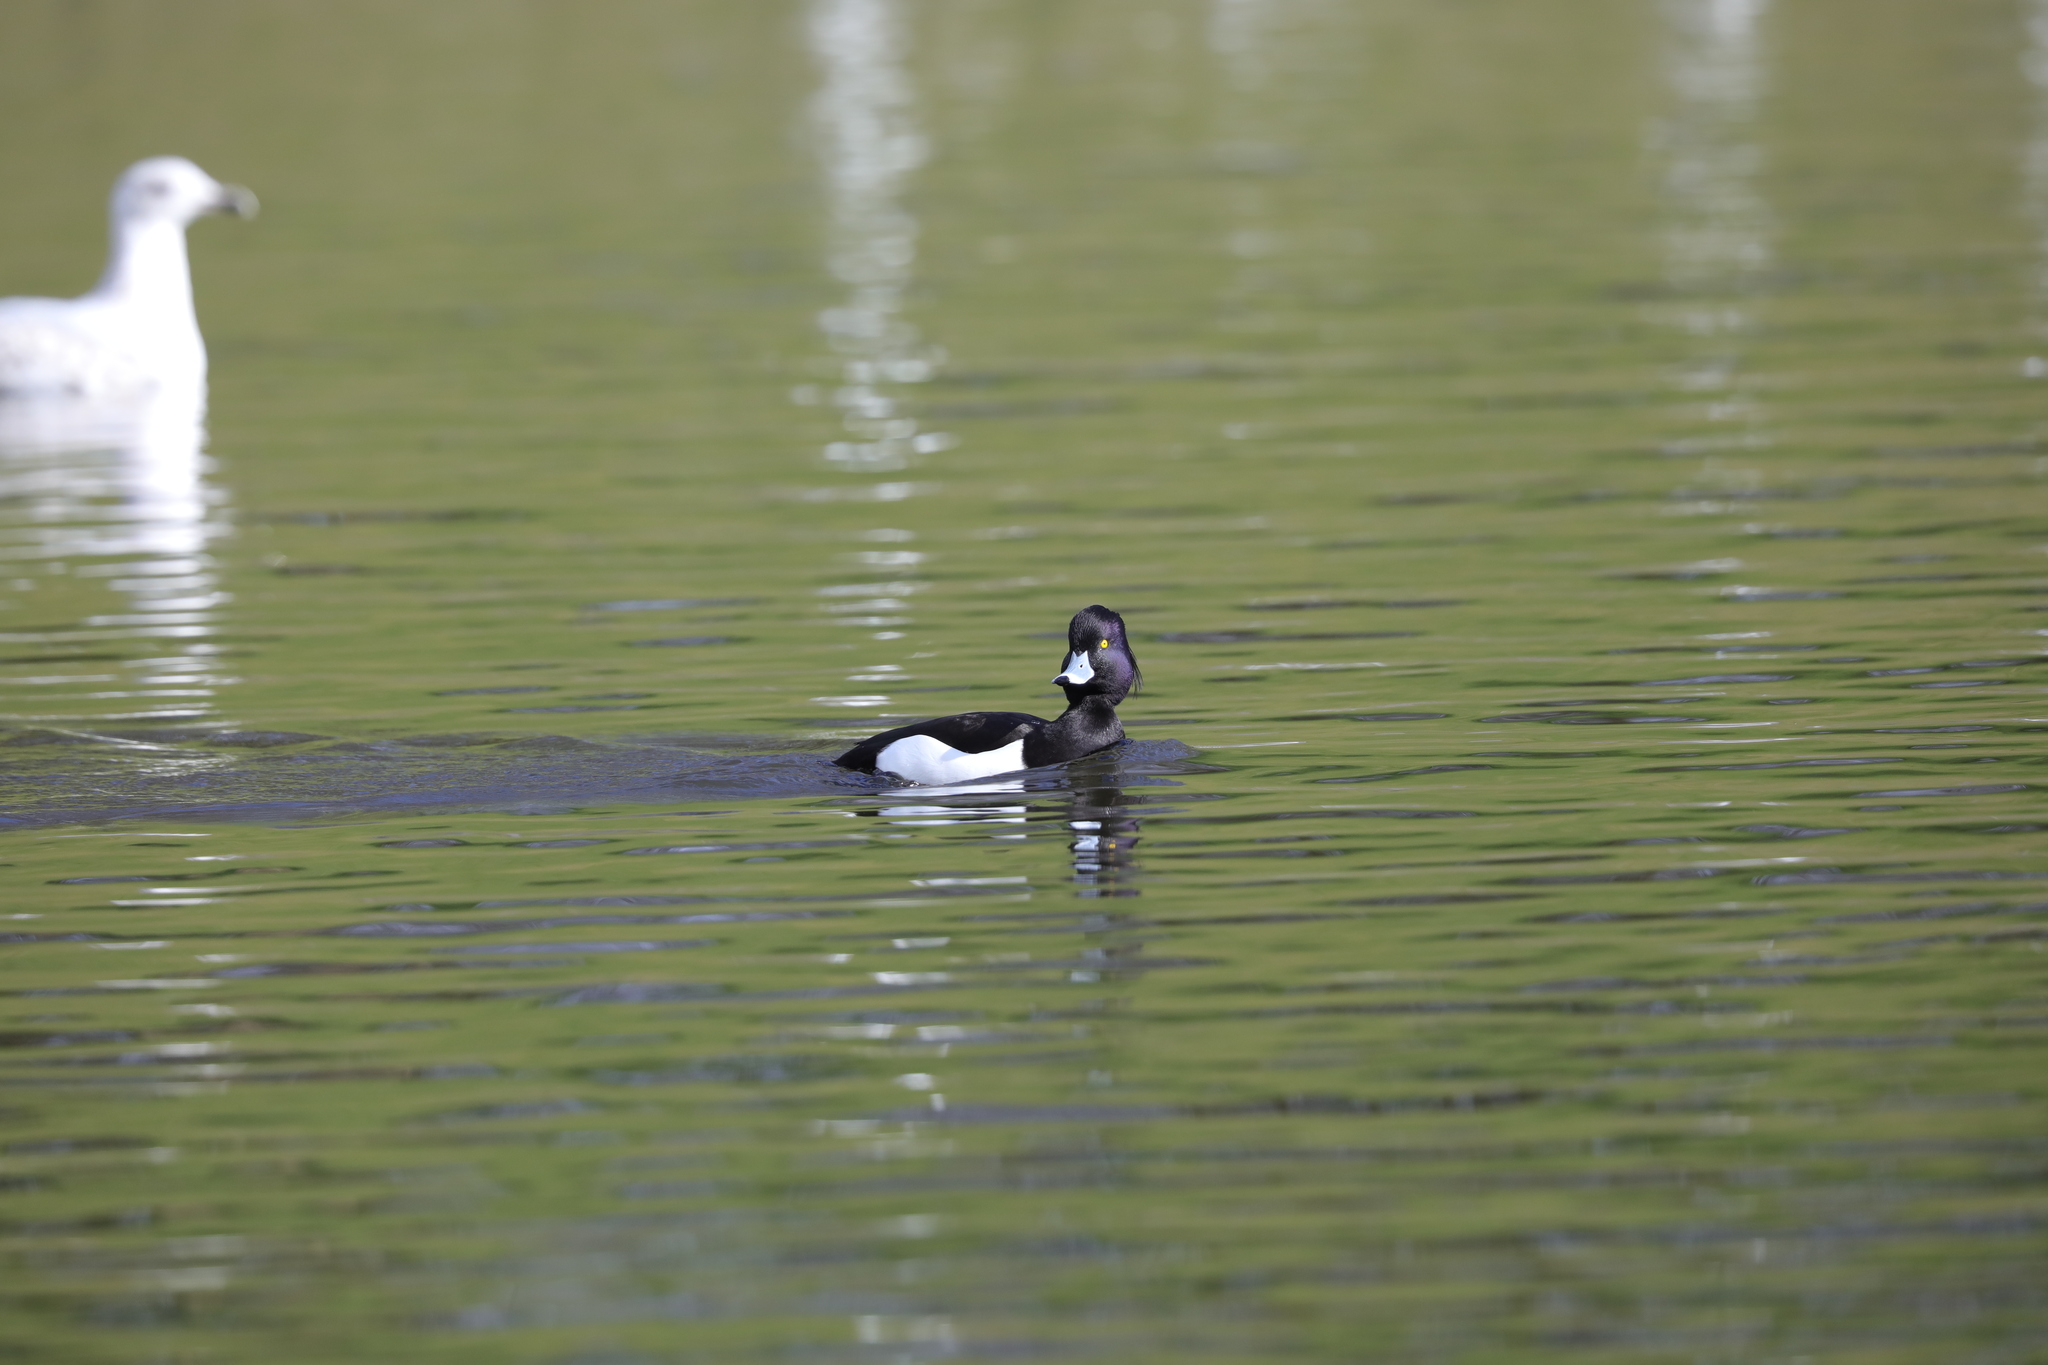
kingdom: Animalia
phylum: Chordata
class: Aves
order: Anseriformes
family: Anatidae
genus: Aythya
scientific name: Aythya fuligula
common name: Tufted duck
